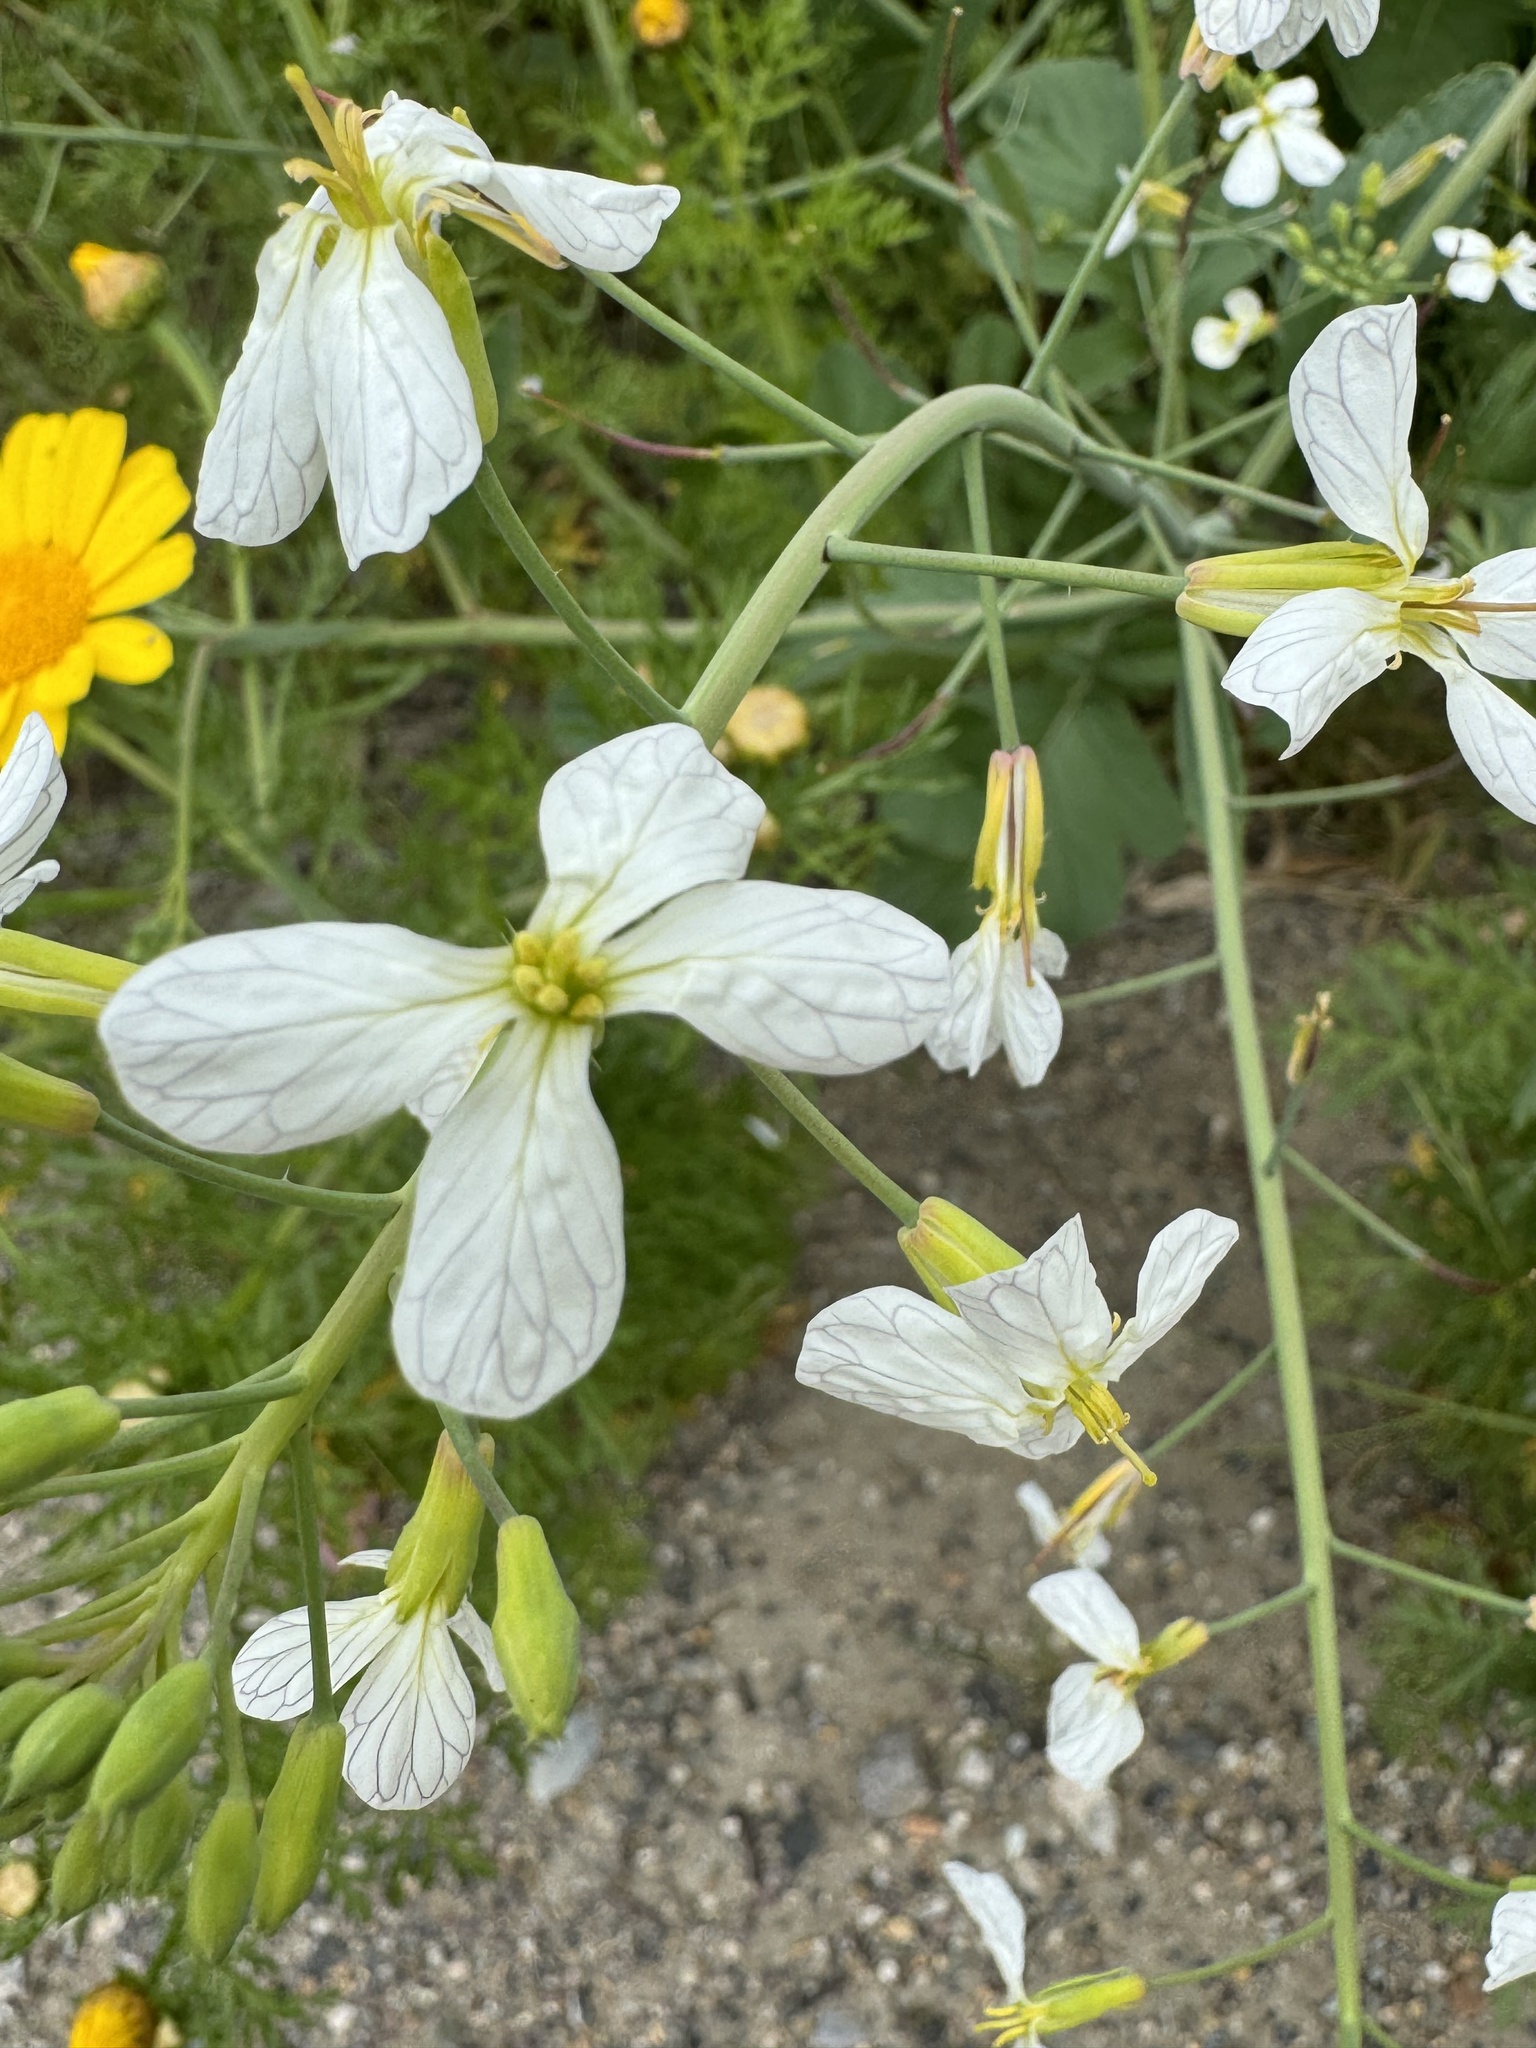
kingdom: Plantae
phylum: Tracheophyta
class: Magnoliopsida
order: Brassicales
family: Brassicaceae
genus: Raphanus
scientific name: Raphanus raphanistrum
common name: Wild radish
